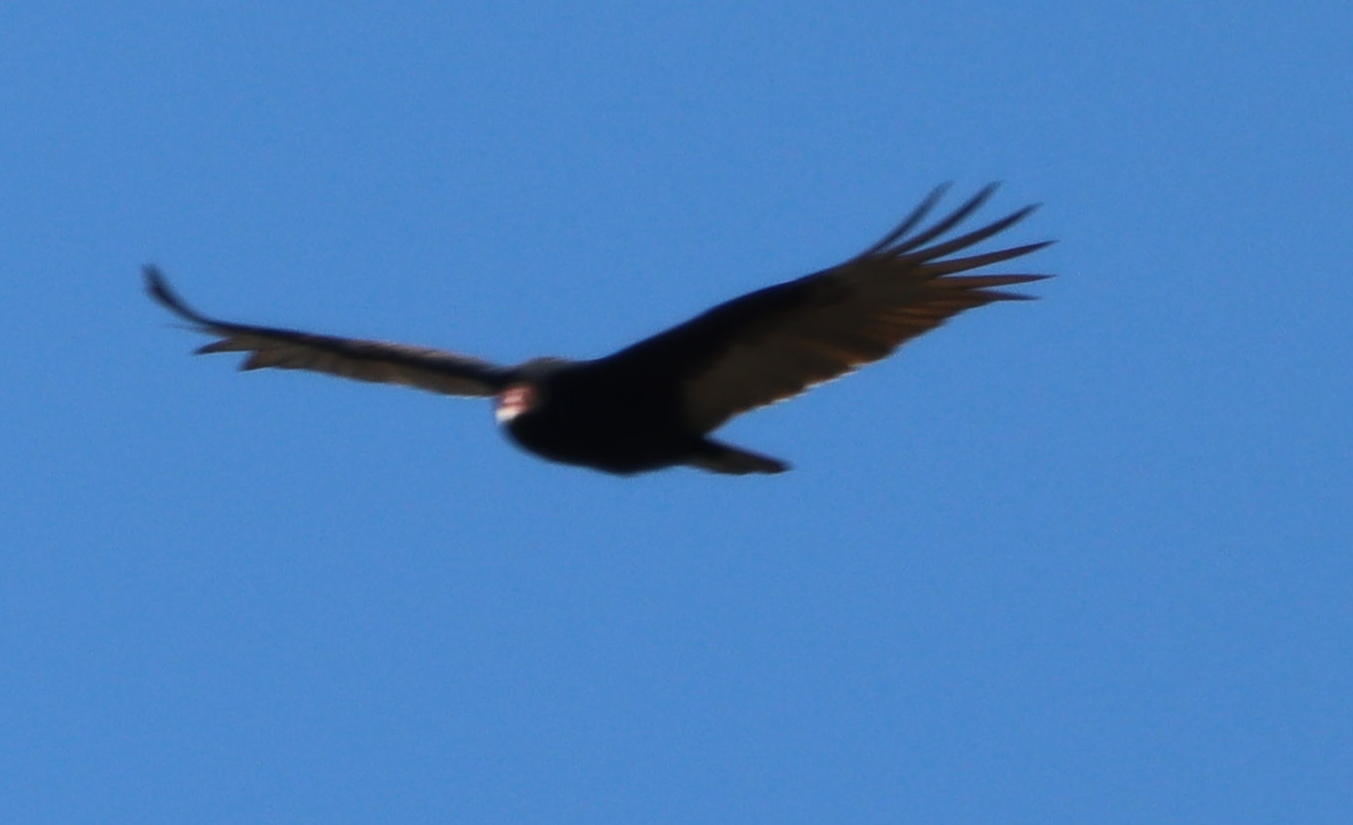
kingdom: Animalia
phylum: Chordata
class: Aves
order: Accipitriformes
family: Cathartidae
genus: Cathartes
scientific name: Cathartes aura
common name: Turkey vulture
